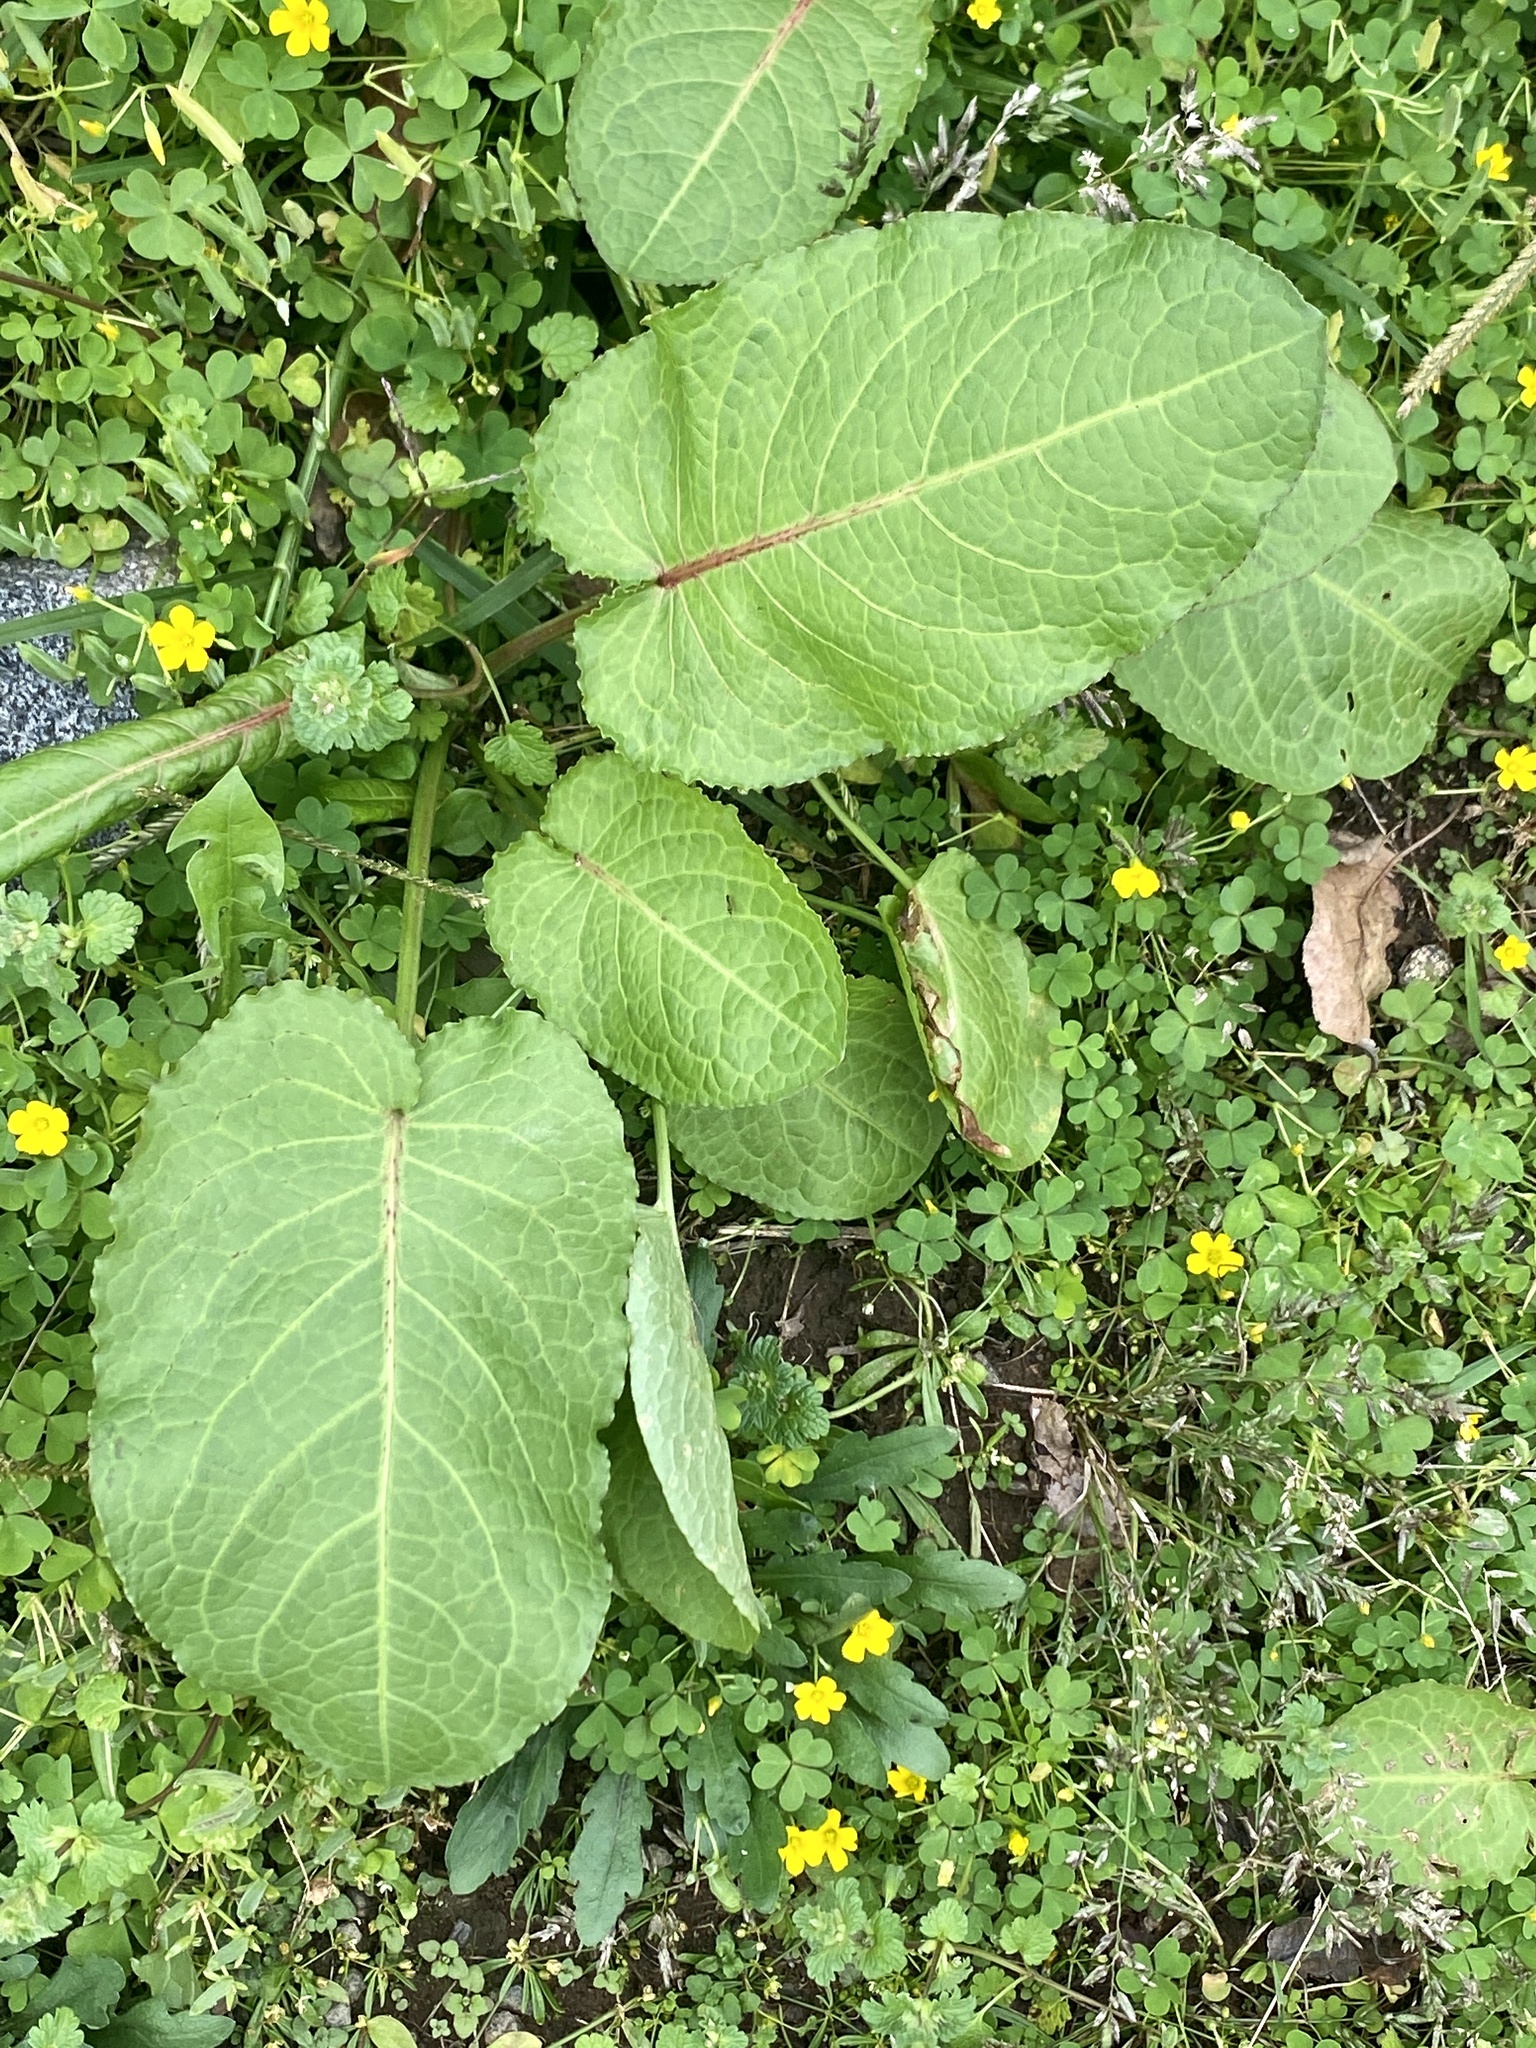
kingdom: Plantae
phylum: Tracheophyta
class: Magnoliopsida
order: Caryophyllales
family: Polygonaceae
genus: Rumex
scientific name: Rumex obtusifolius
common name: Bitter dock
